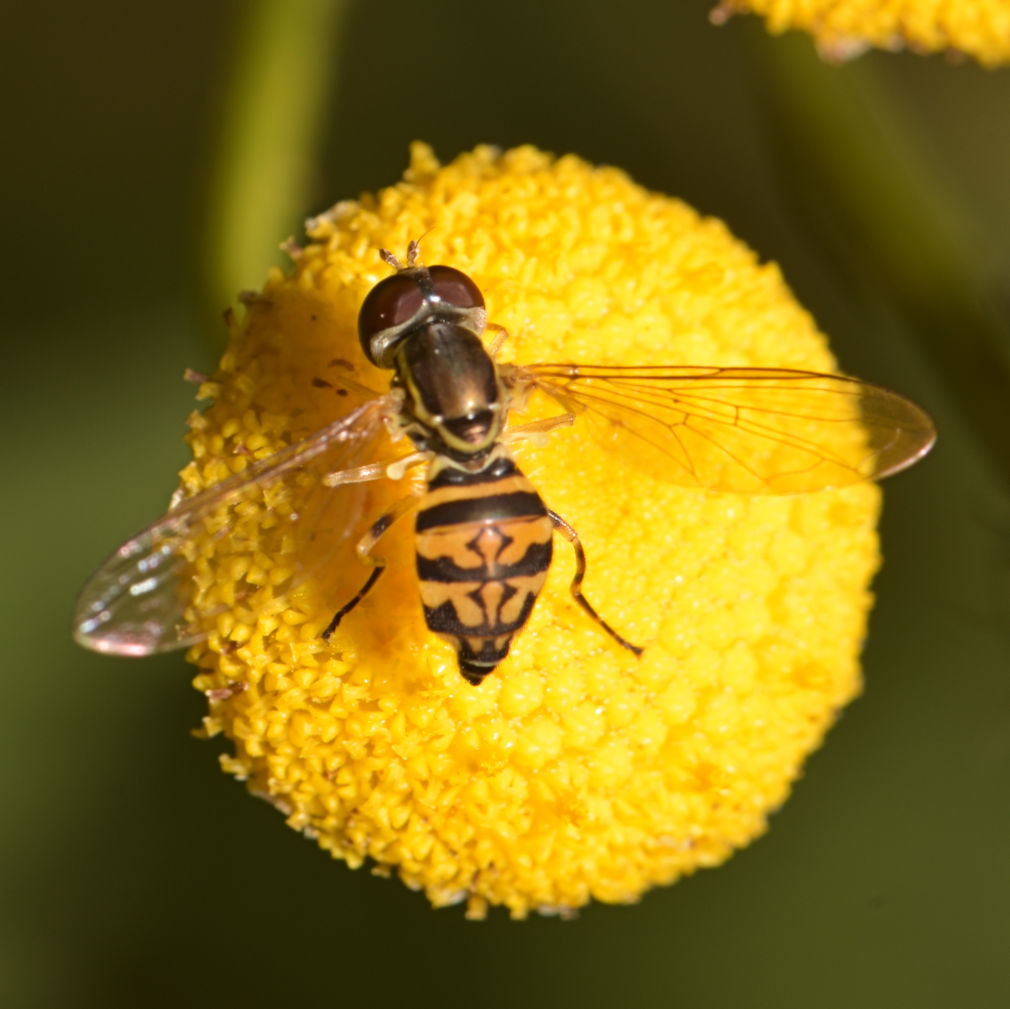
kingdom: Animalia
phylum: Arthropoda
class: Insecta
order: Diptera
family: Syrphidae
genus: Toxomerus
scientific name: Toxomerus geminatus
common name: Eastern calligrapher
